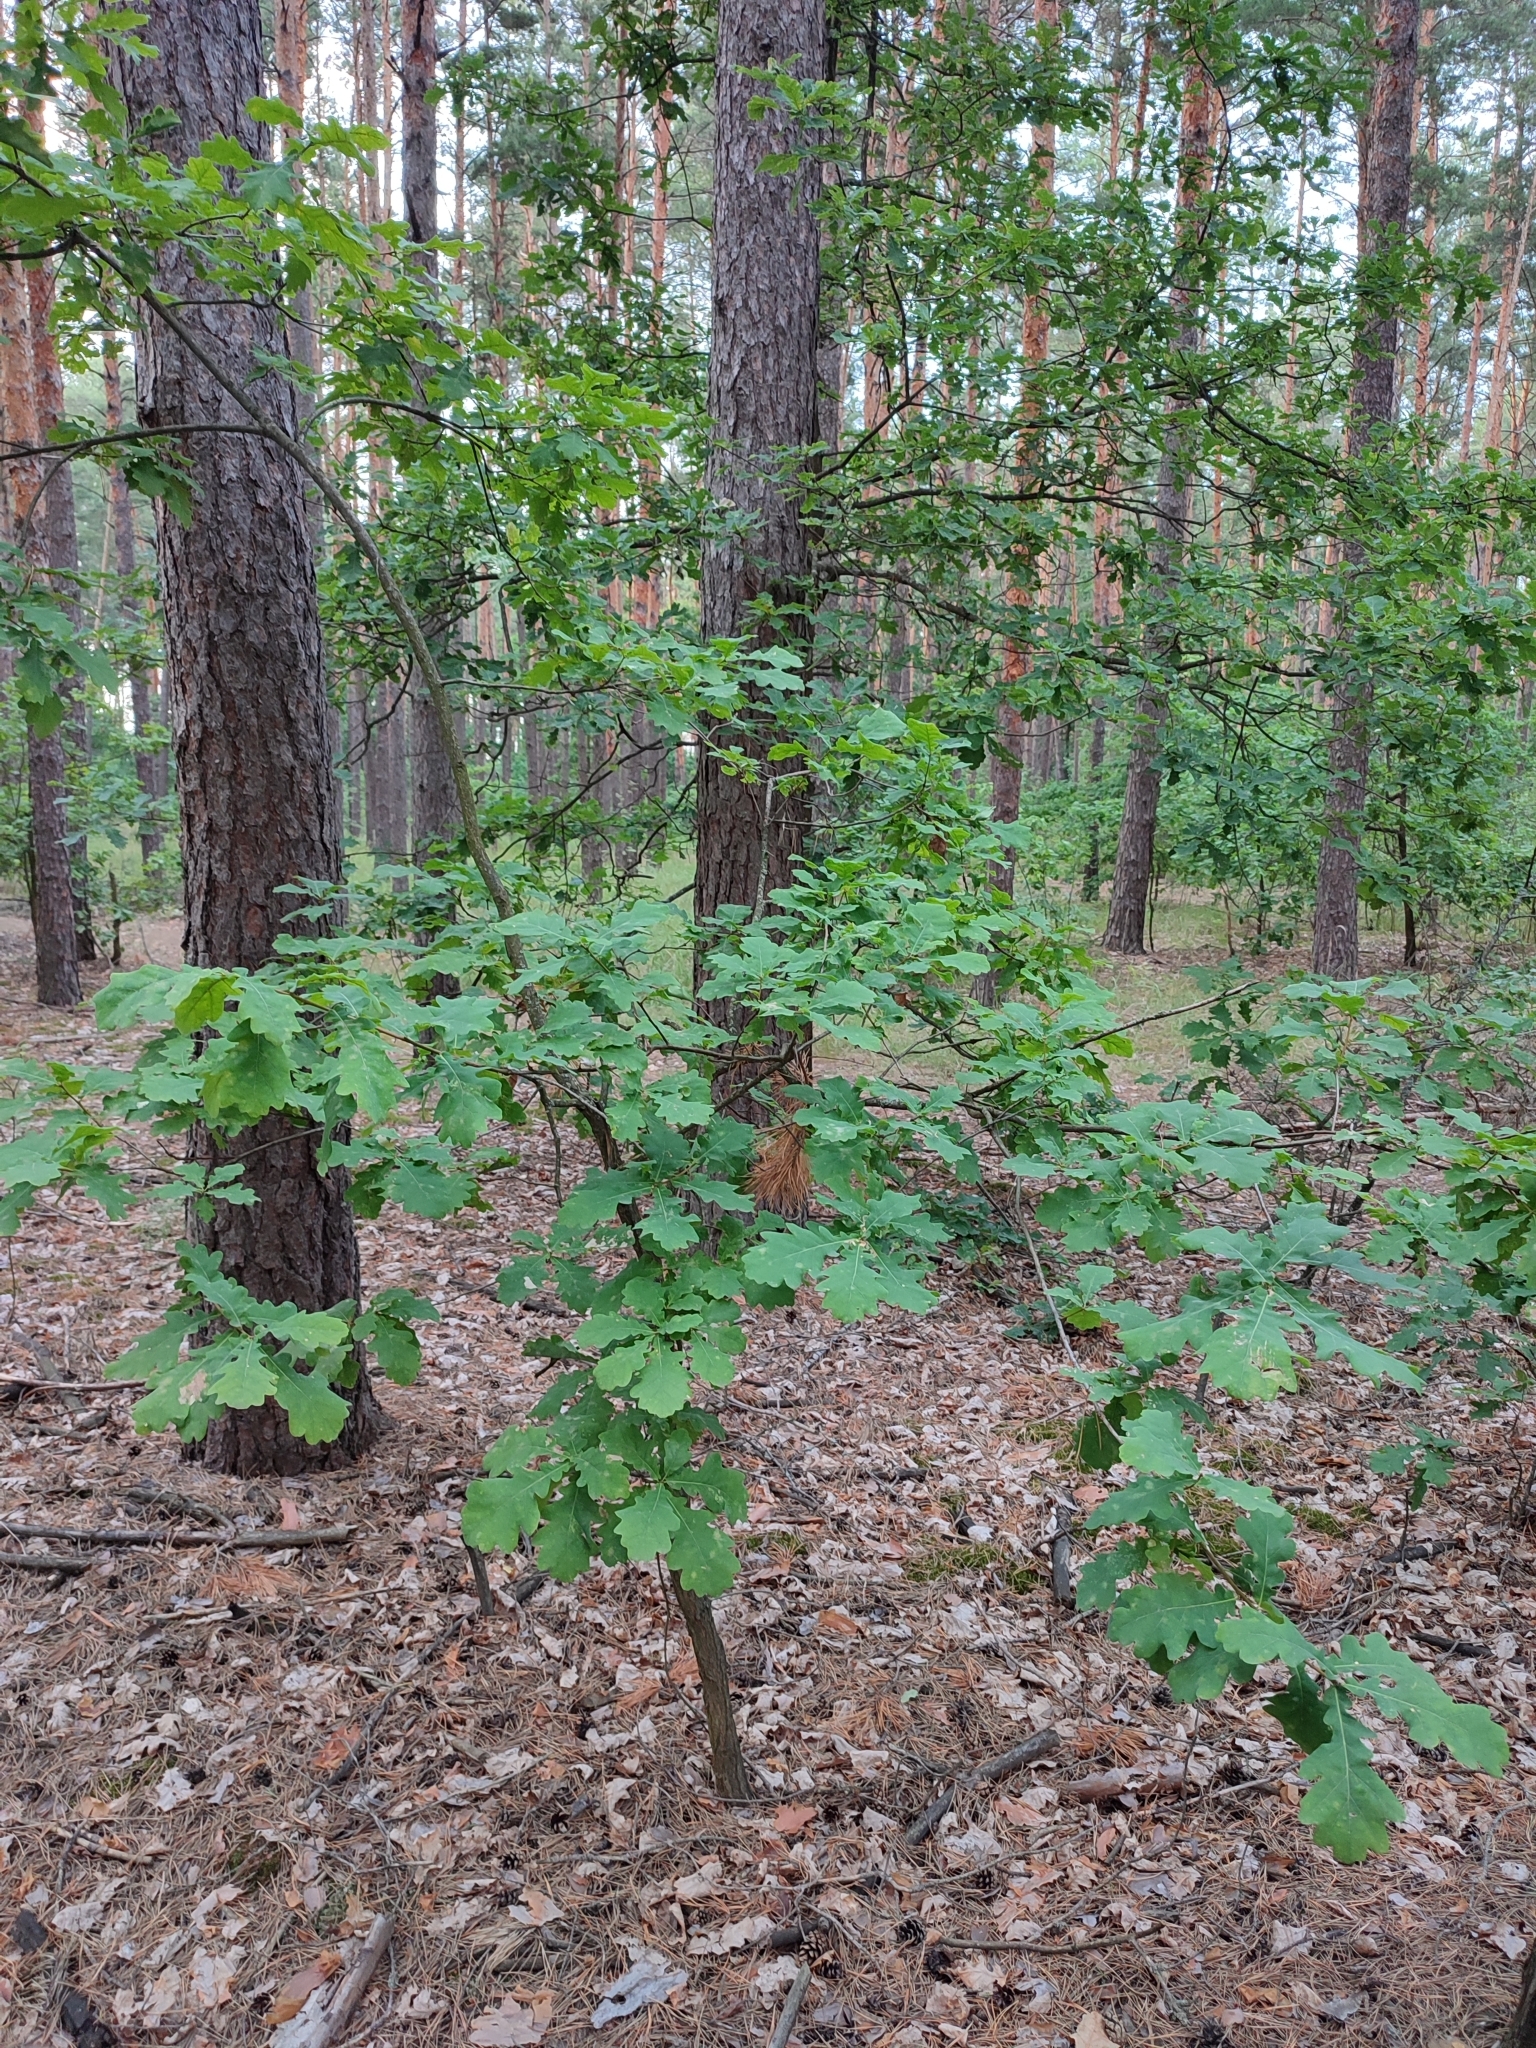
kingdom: Plantae
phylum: Tracheophyta
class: Magnoliopsida
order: Fagales
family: Fagaceae
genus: Quercus
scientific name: Quercus robur
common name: Pedunculate oak
